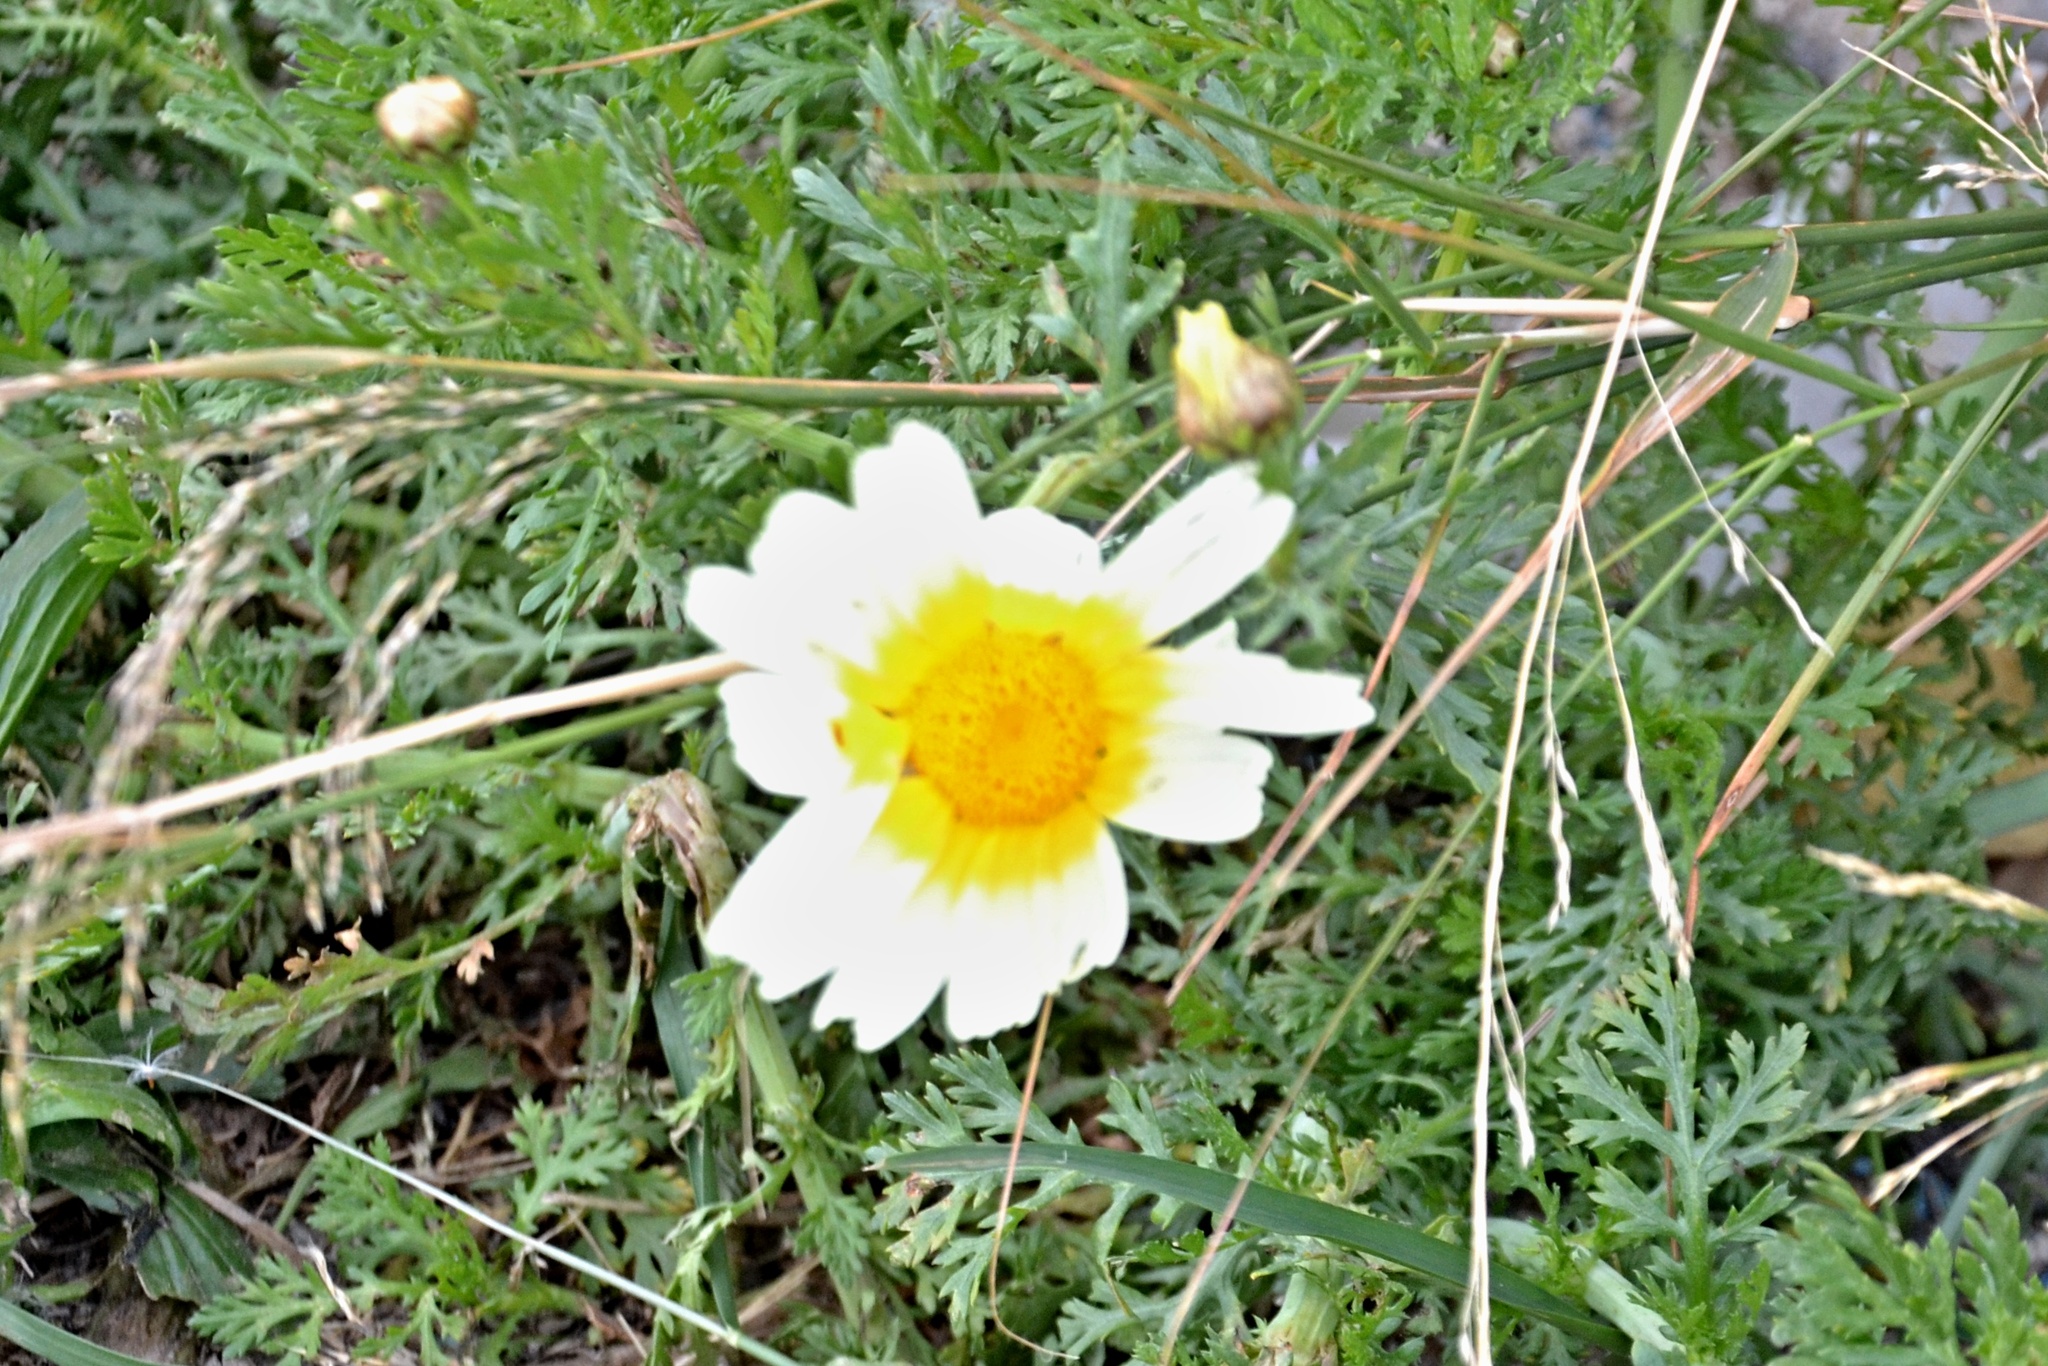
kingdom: Plantae
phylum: Tracheophyta
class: Magnoliopsida
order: Asterales
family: Asteraceae
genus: Glebionis
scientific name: Glebionis coronaria
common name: Crowndaisy
